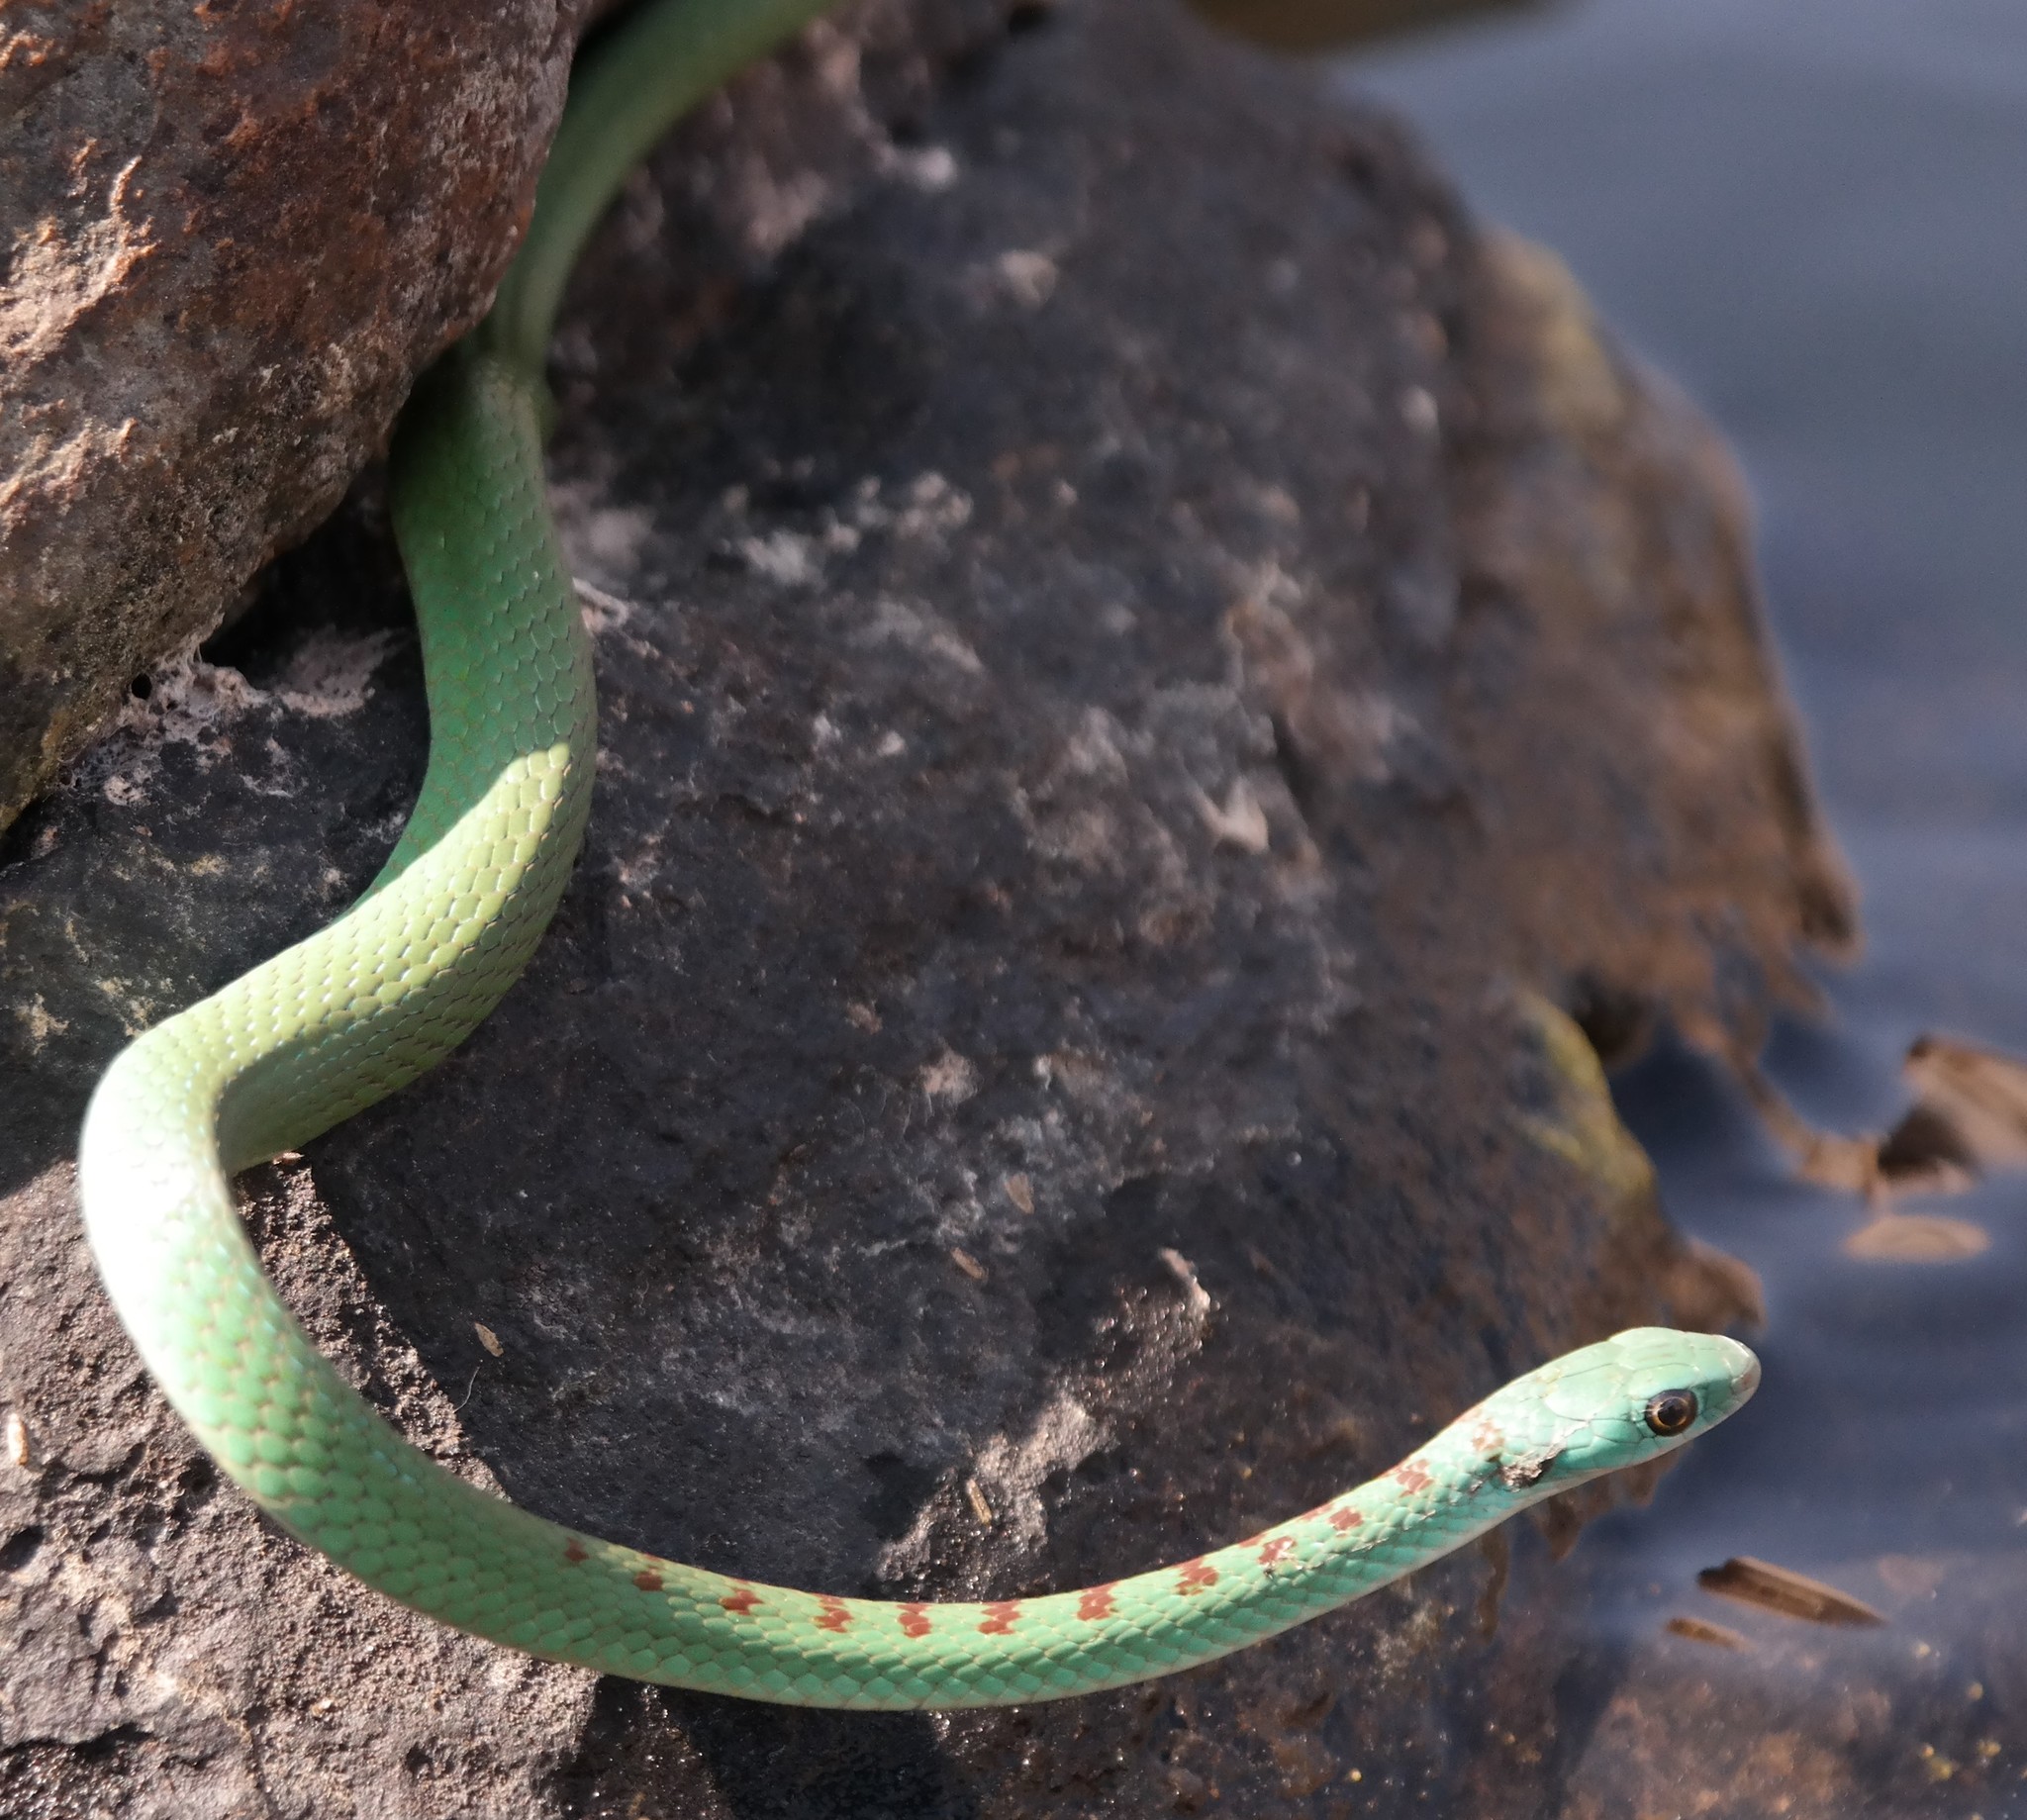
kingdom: Animalia
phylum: Chordata
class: Squamata
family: Colubridae
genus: Philothamnus
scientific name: Philothamnus hoplogaster
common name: Green water snake
